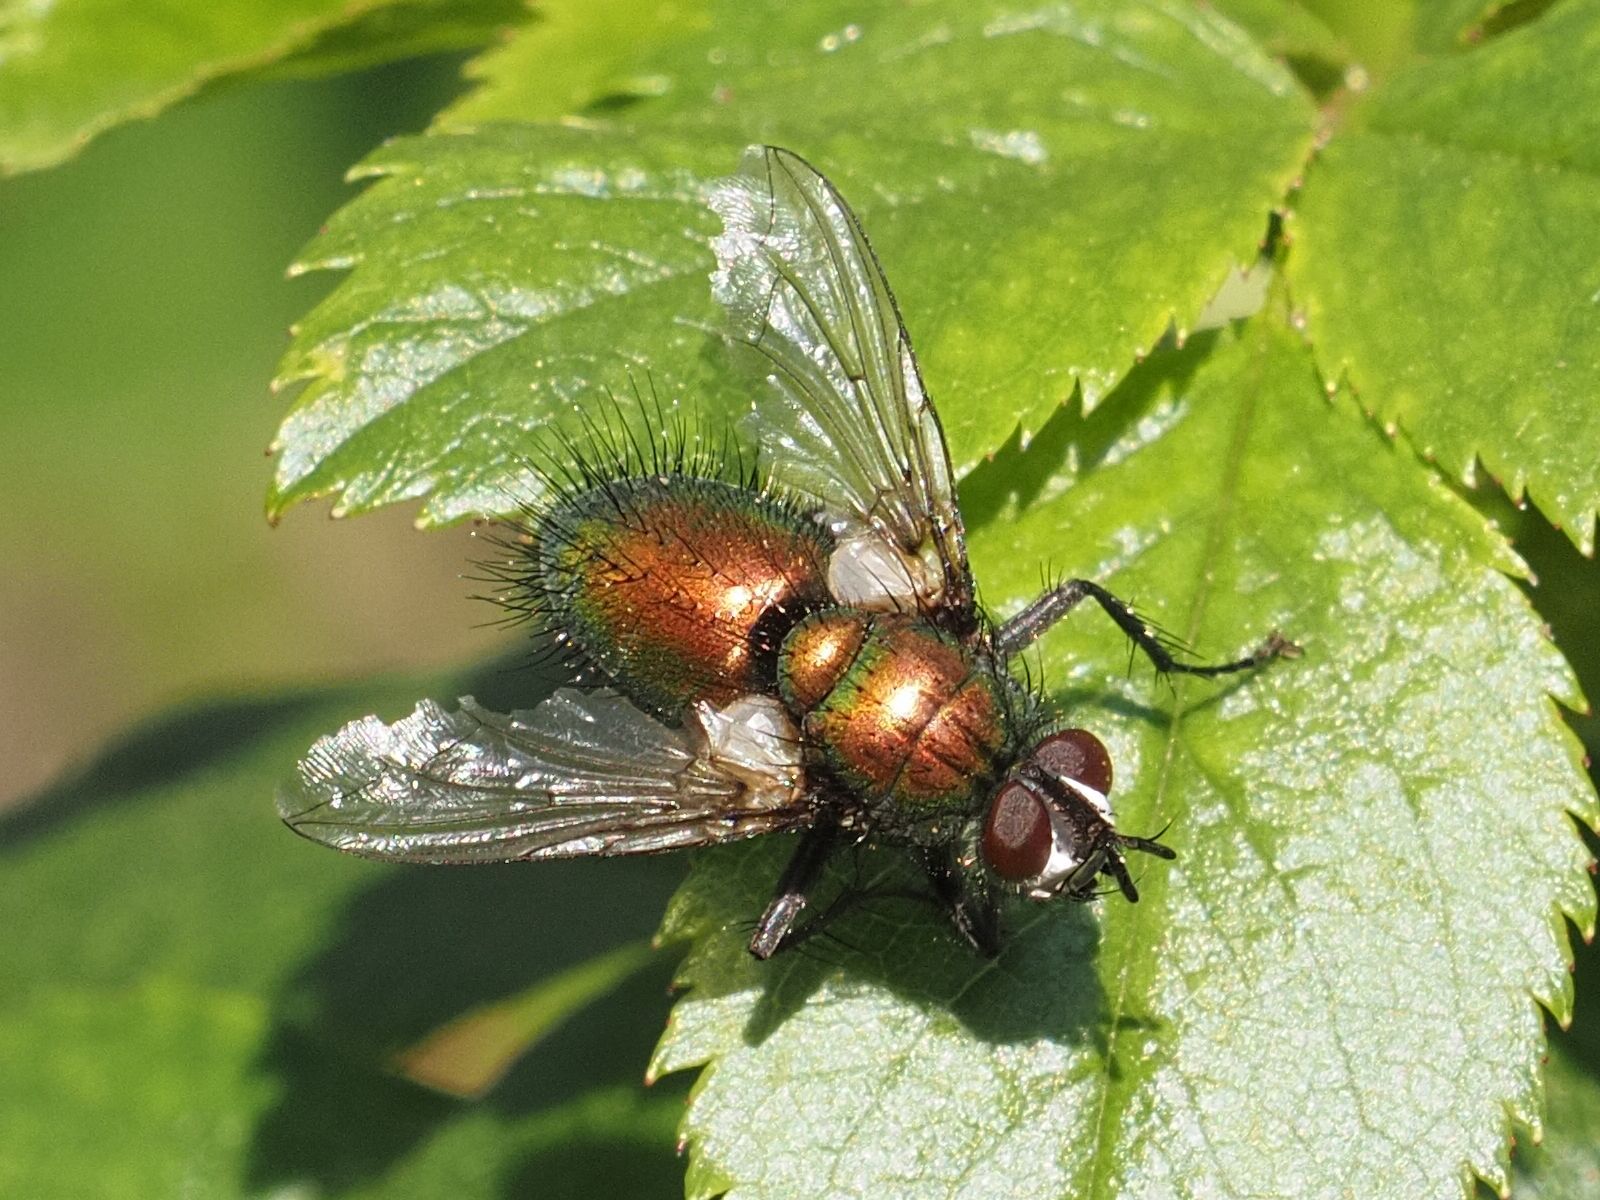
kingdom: Animalia
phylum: Arthropoda
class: Insecta
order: Diptera
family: Tachinidae
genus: Gymnocheta
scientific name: Gymnocheta viridis
